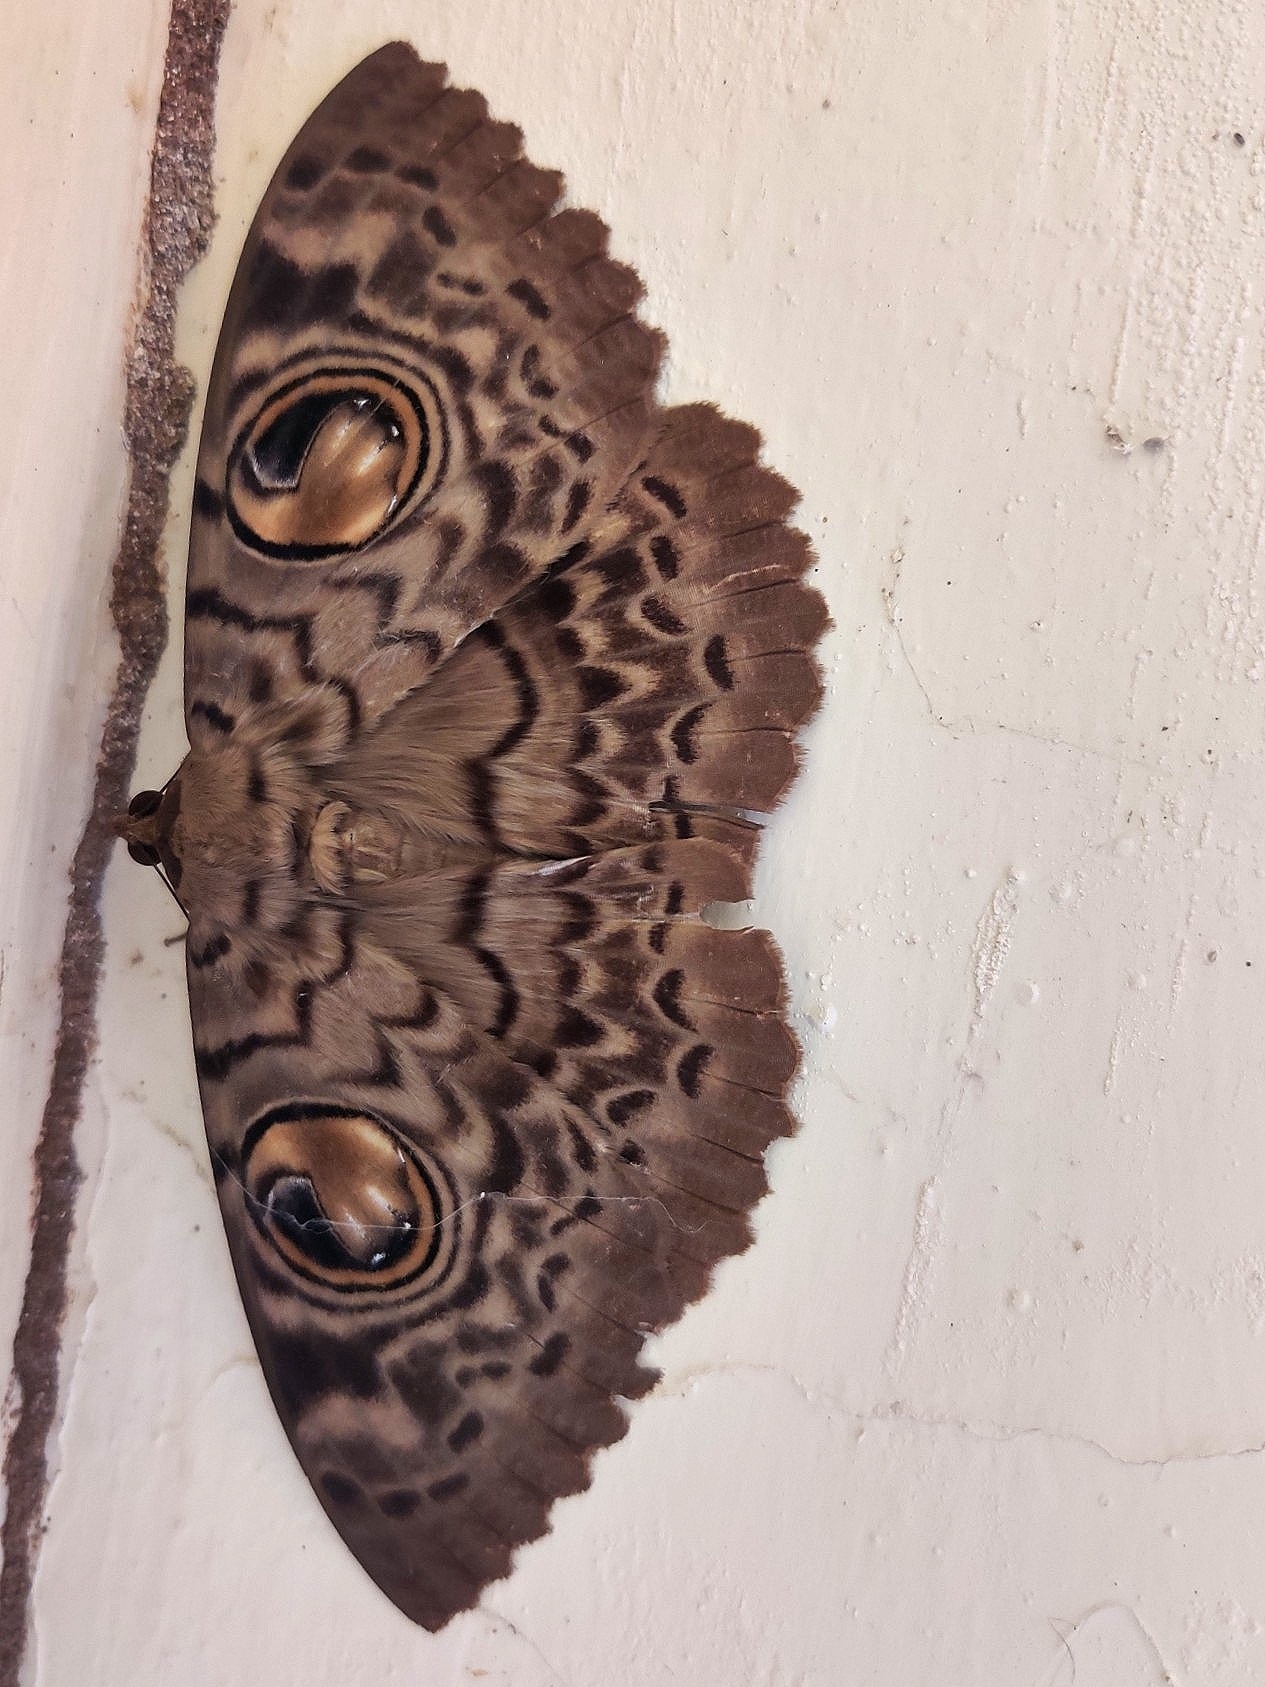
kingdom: Animalia
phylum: Arthropoda
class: Insecta
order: Lepidoptera
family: Erebidae
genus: Erebus
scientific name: Erebus macrops
